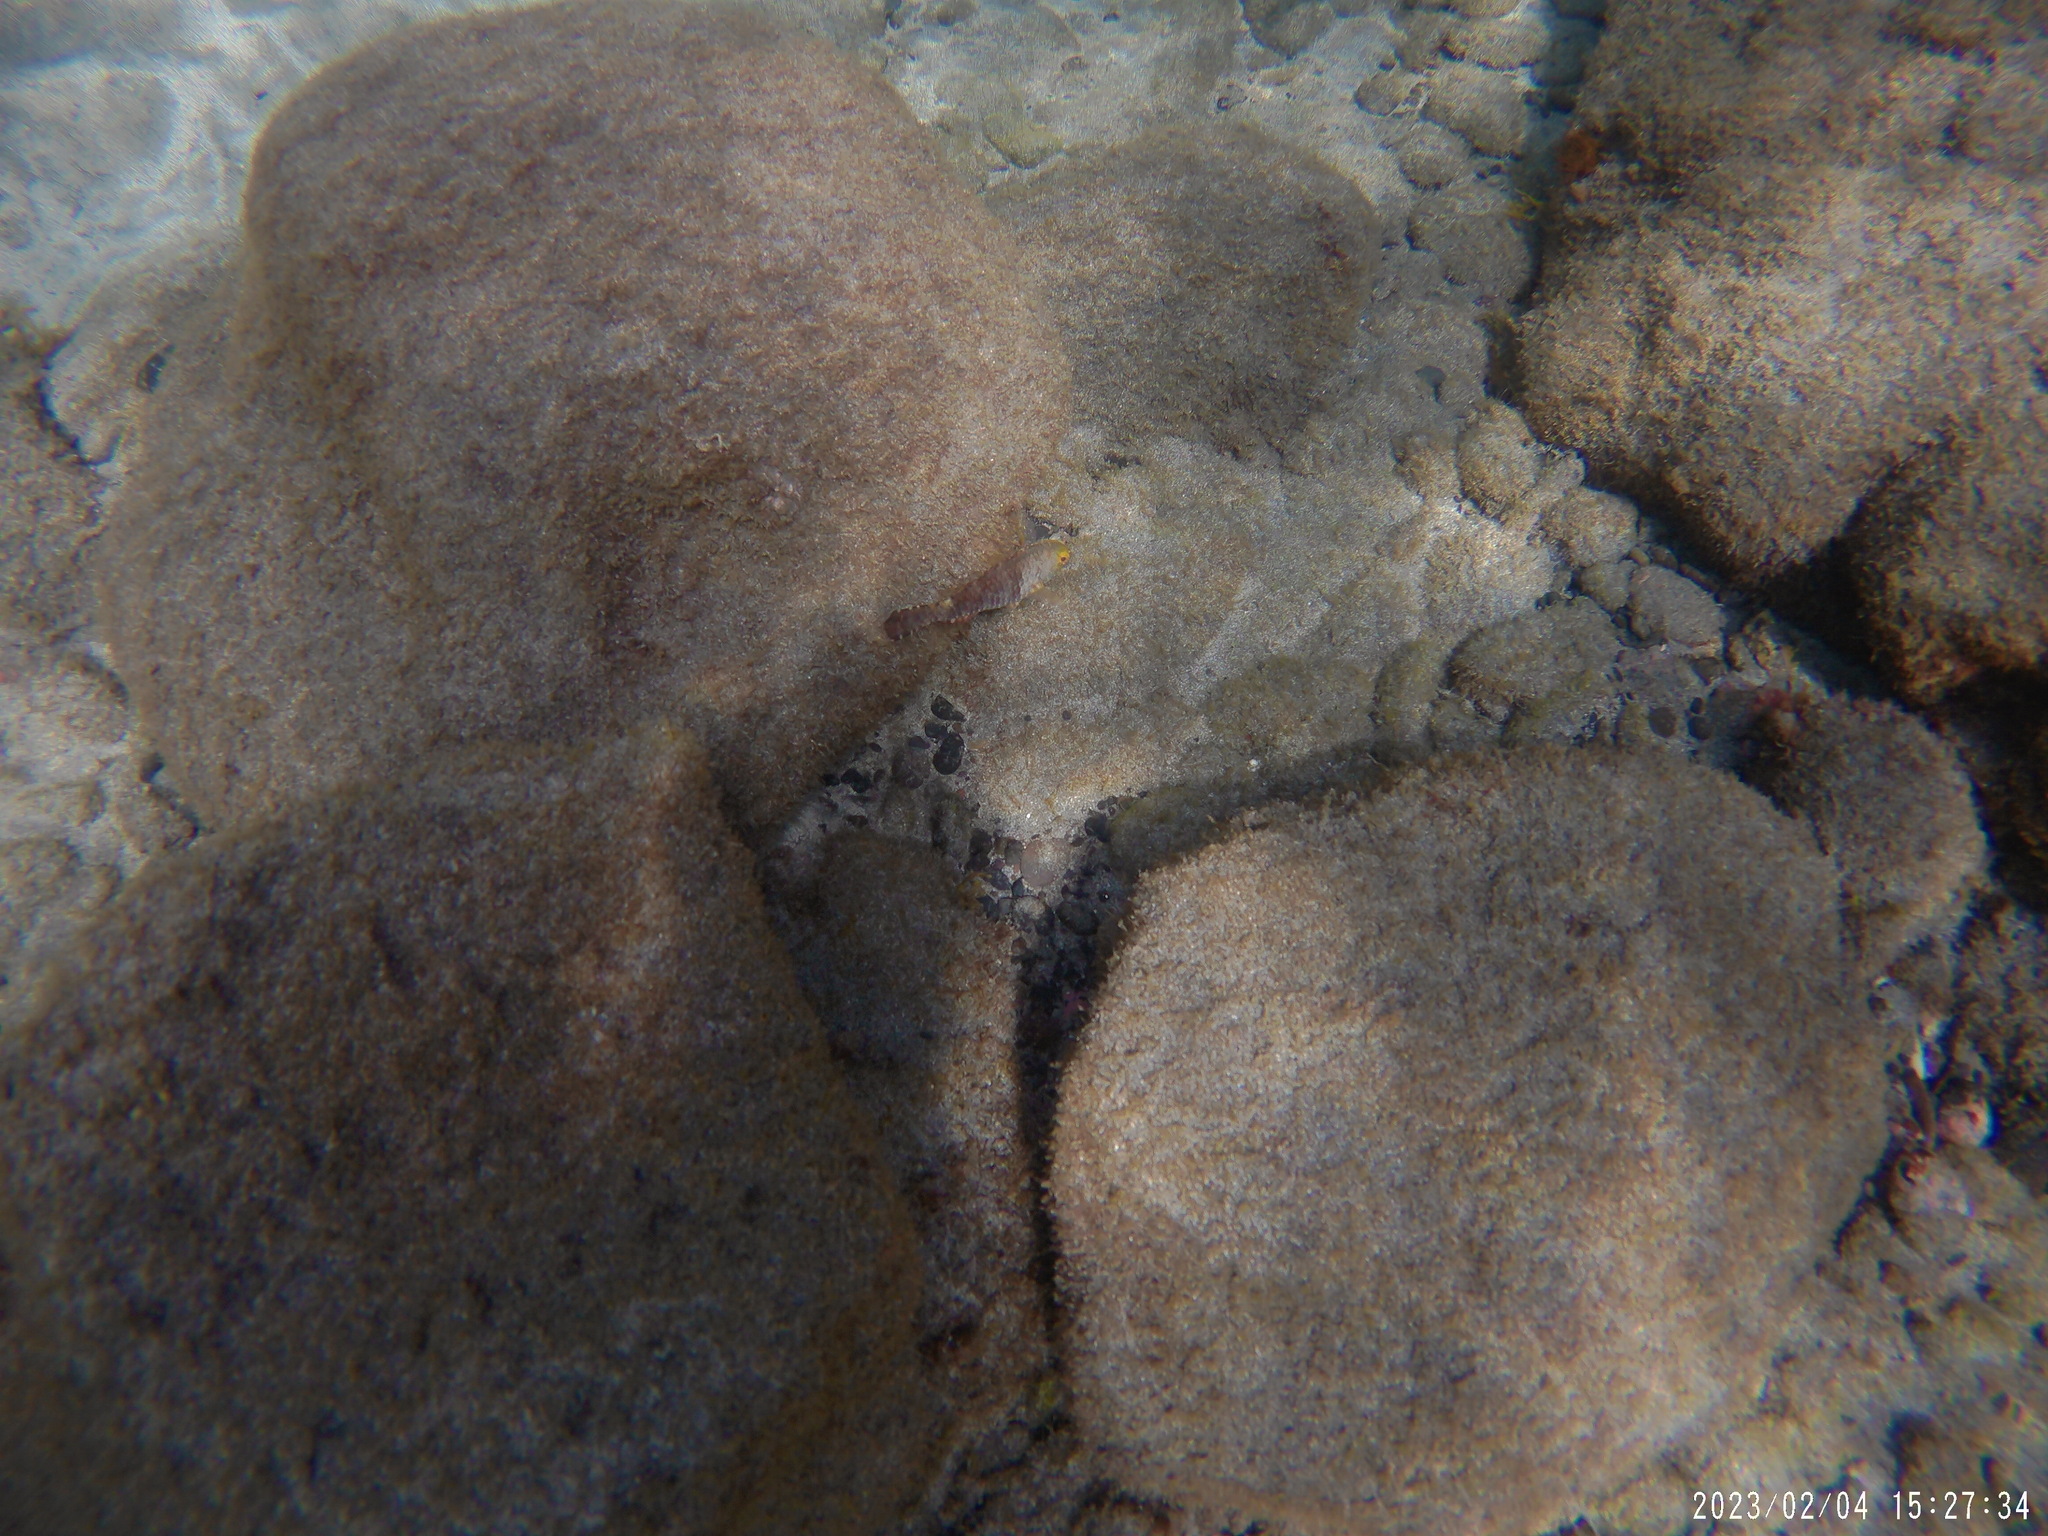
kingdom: Animalia
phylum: Chordata
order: Perciformes
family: Scaridae
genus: Sparisoma
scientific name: Sparisoma cretense
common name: Parrotfish
